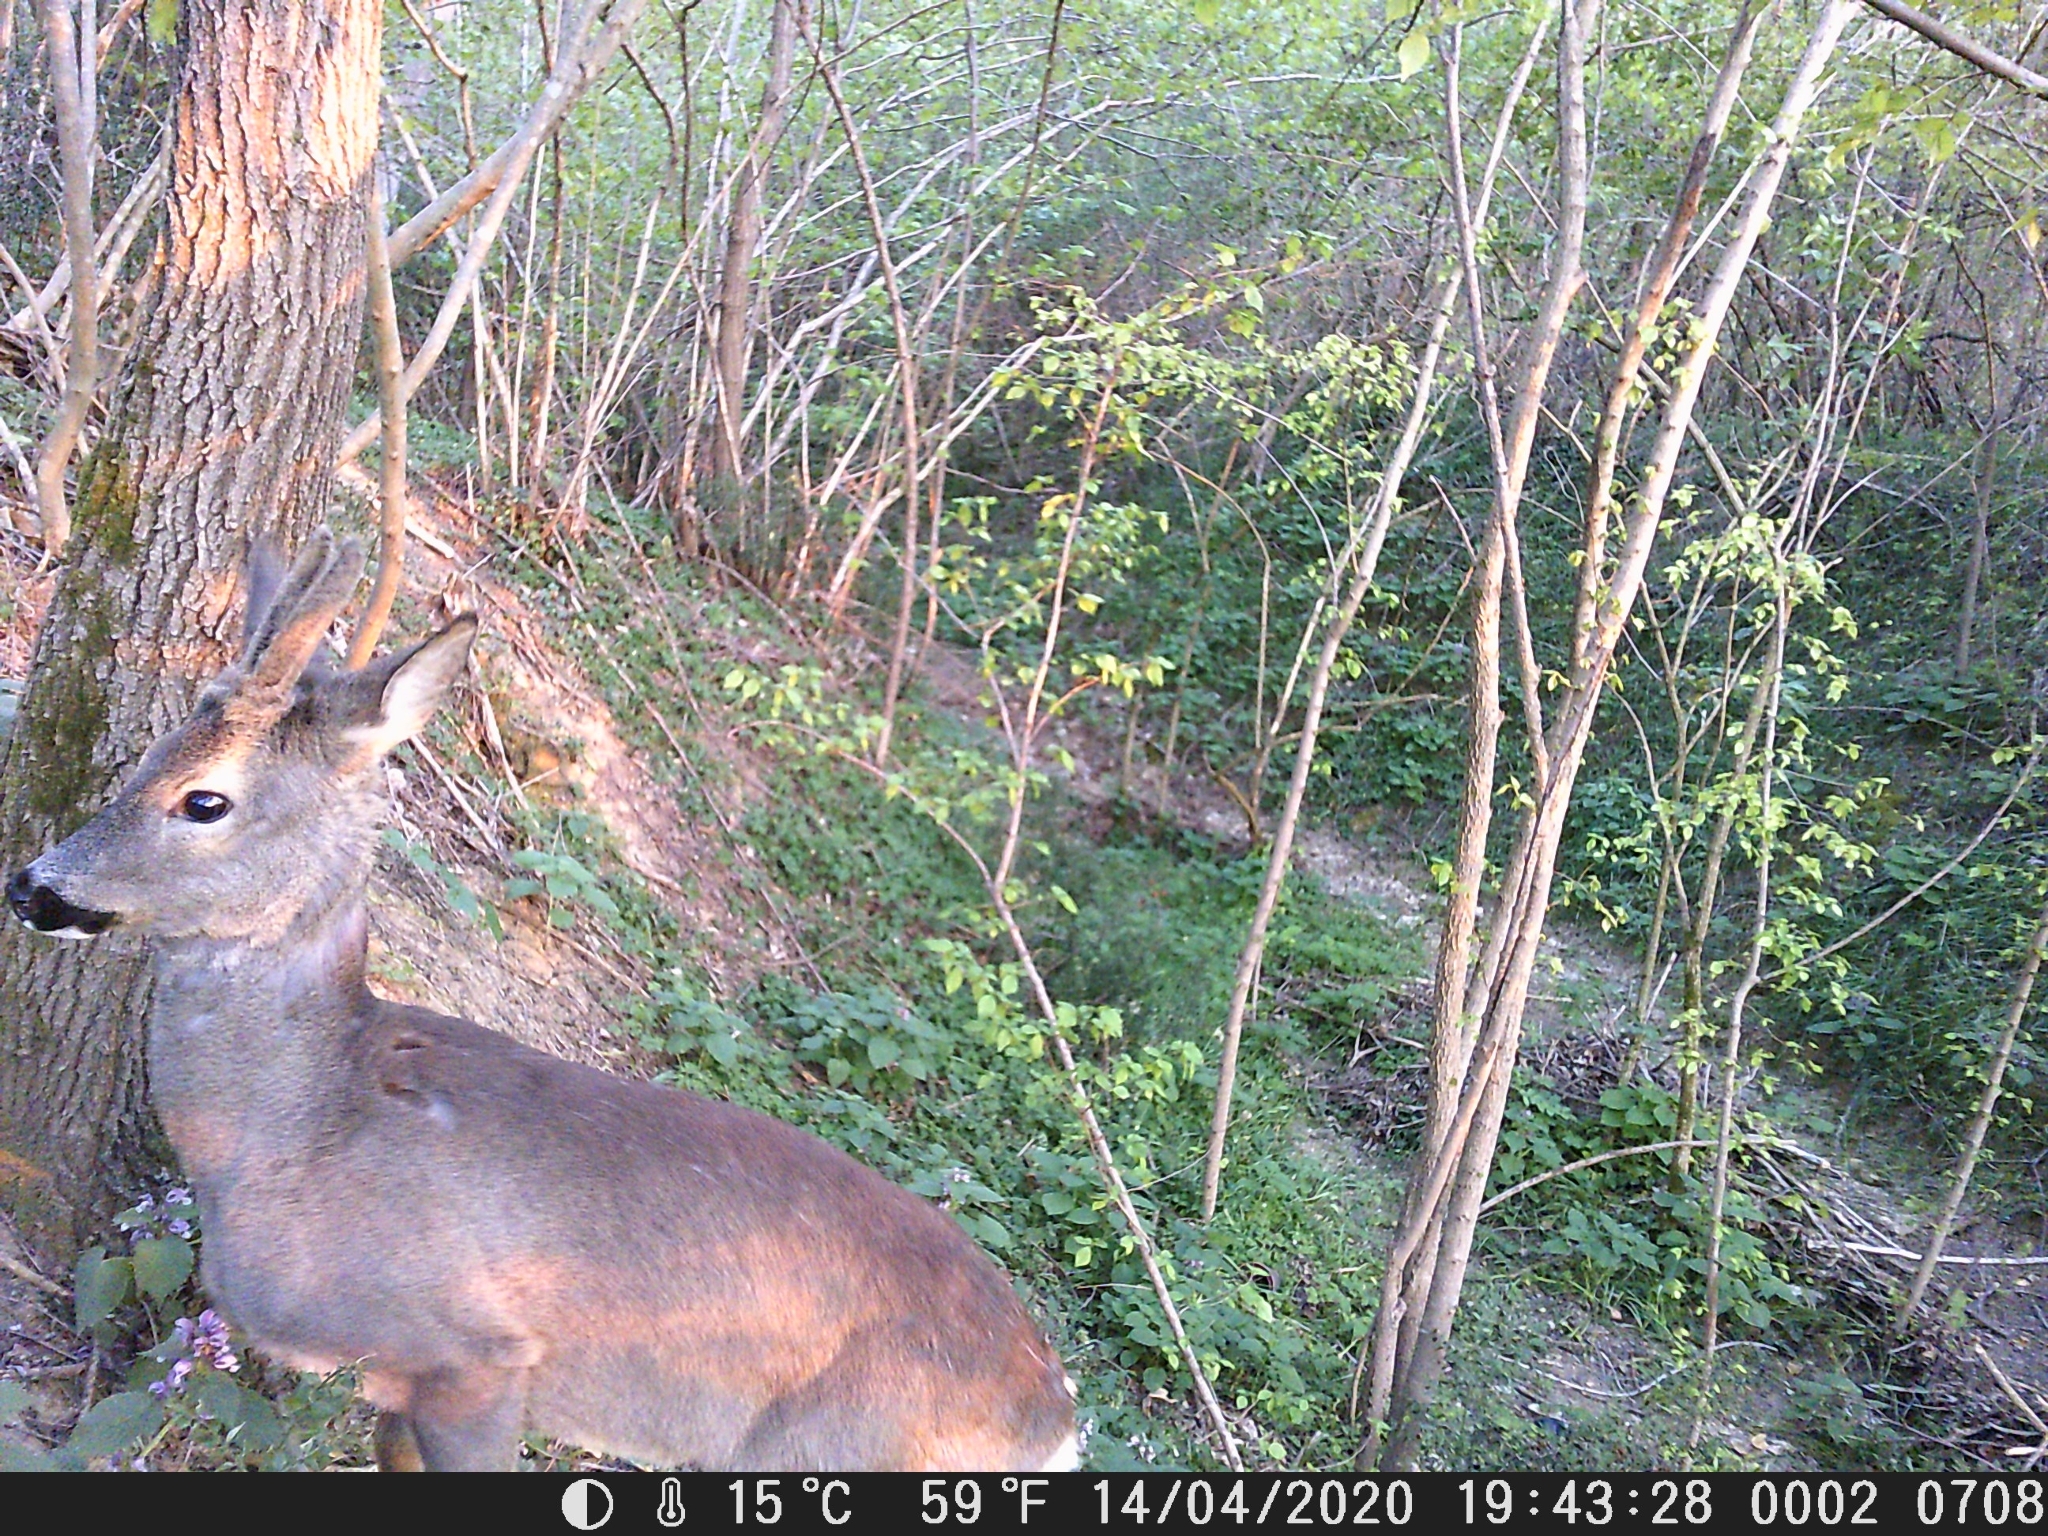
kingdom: Animalia
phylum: Chordata
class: Mammalia
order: Artiodactyla
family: Cervidae
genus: Capreolus
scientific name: Capreolus capreolus
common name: Western roe deer
